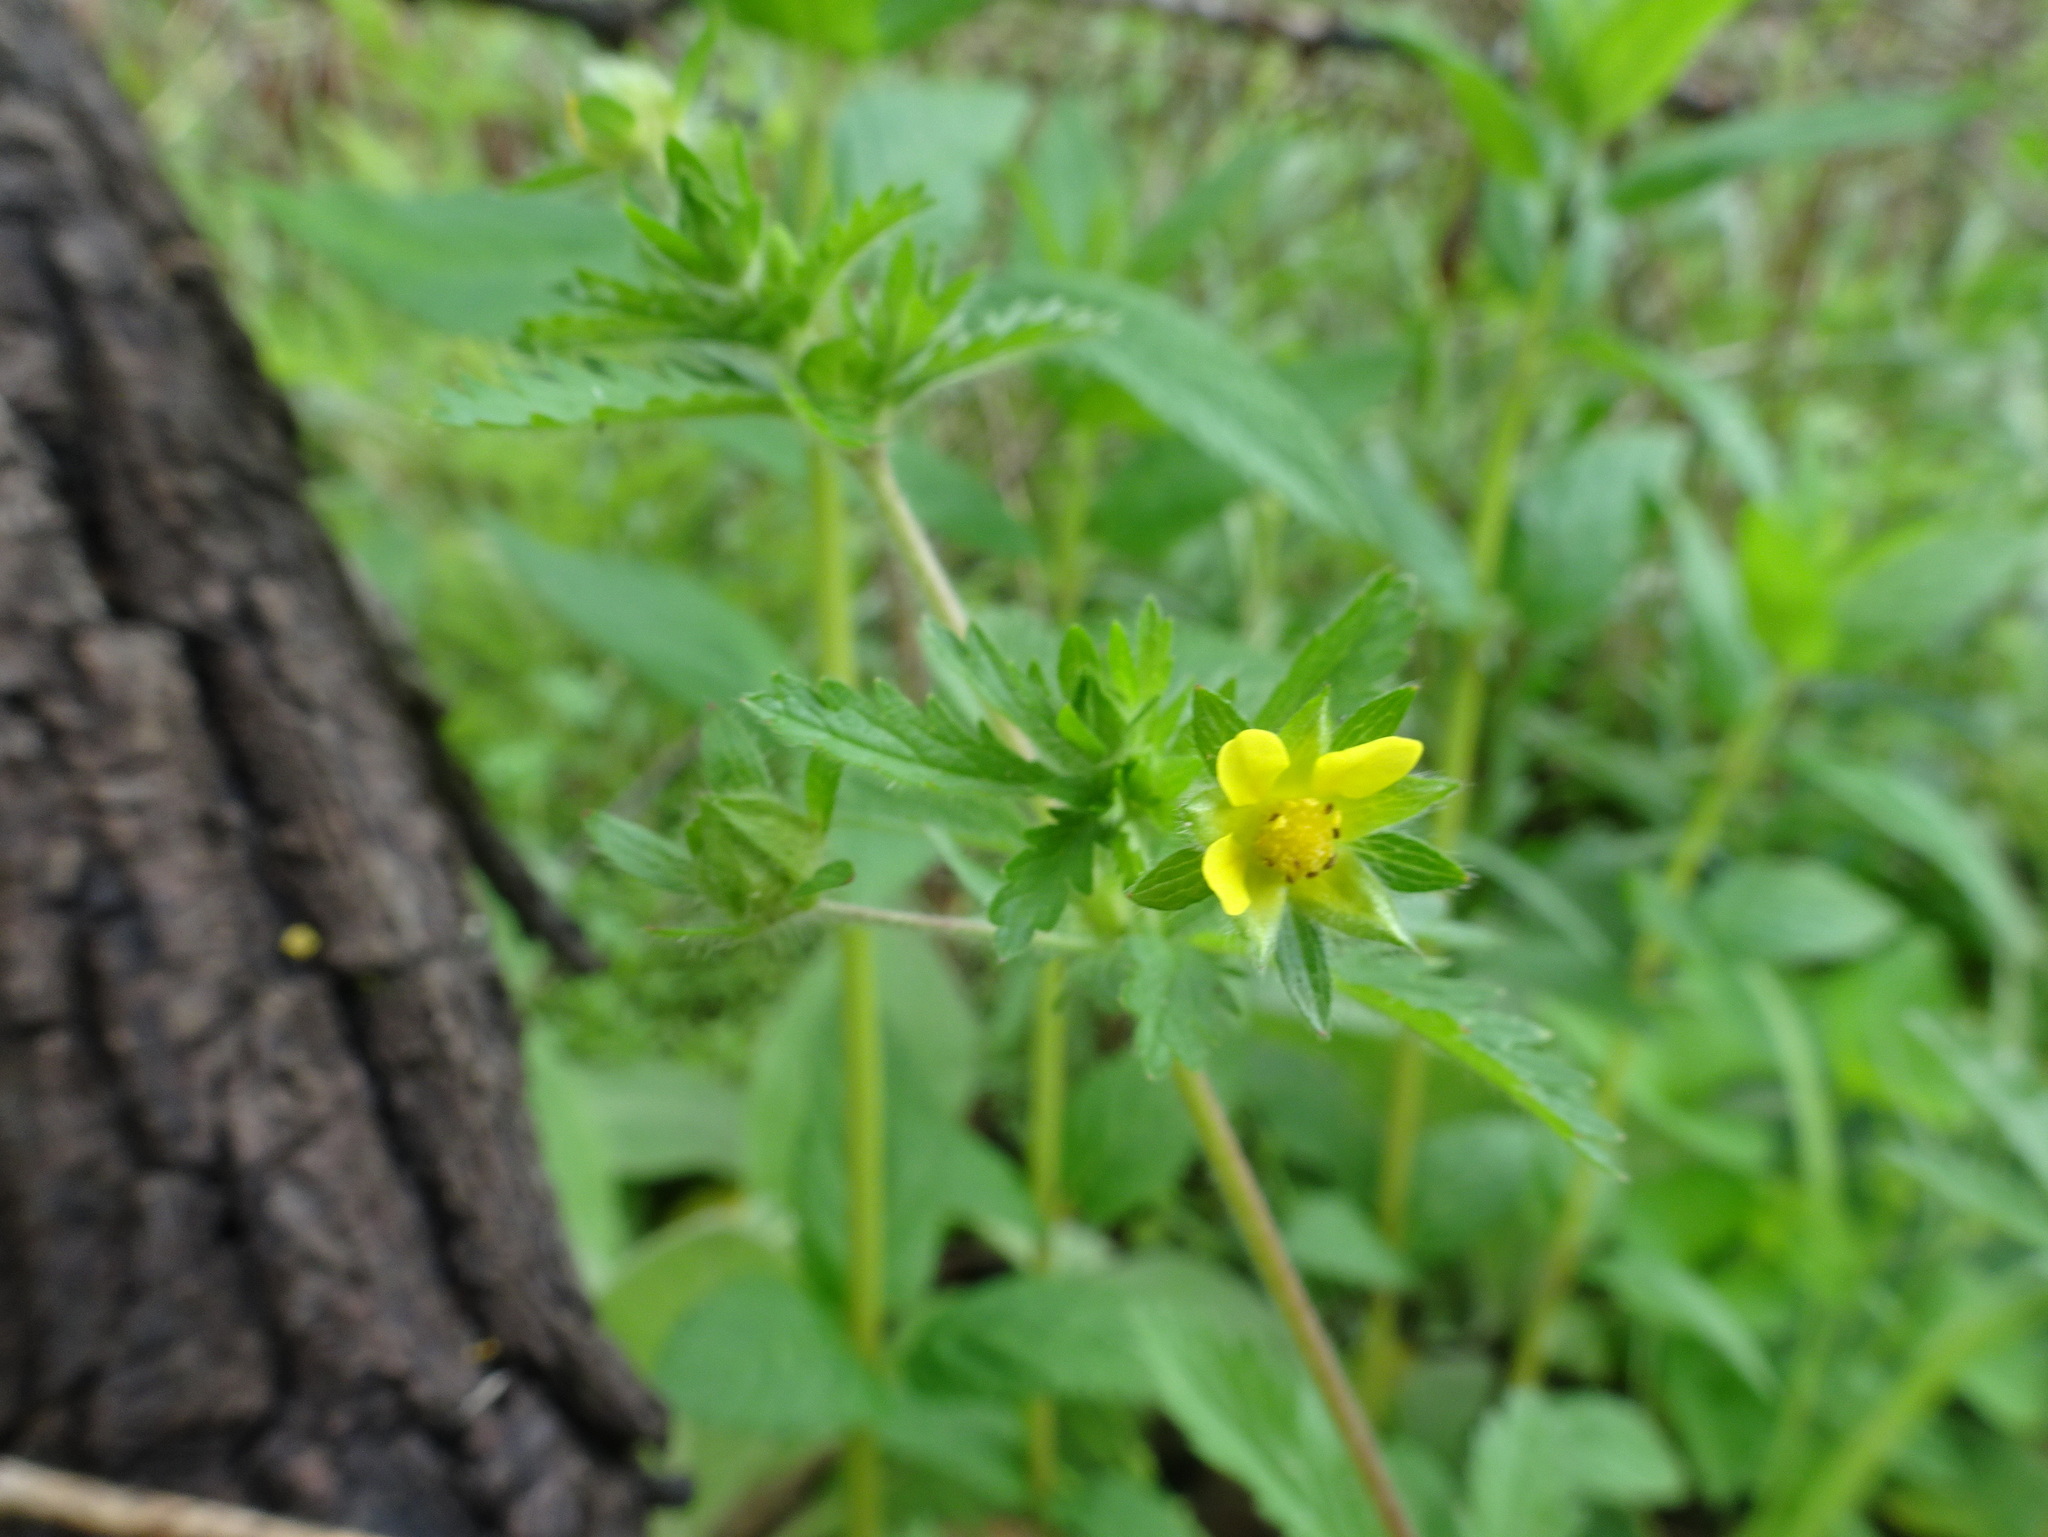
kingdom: Plantae
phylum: Tracheophyta
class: Magnoliopsida
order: Rosales
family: Rosaceae
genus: Potentilla
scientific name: Potentilla norvegica
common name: Ternate-leaved cinquefoil
